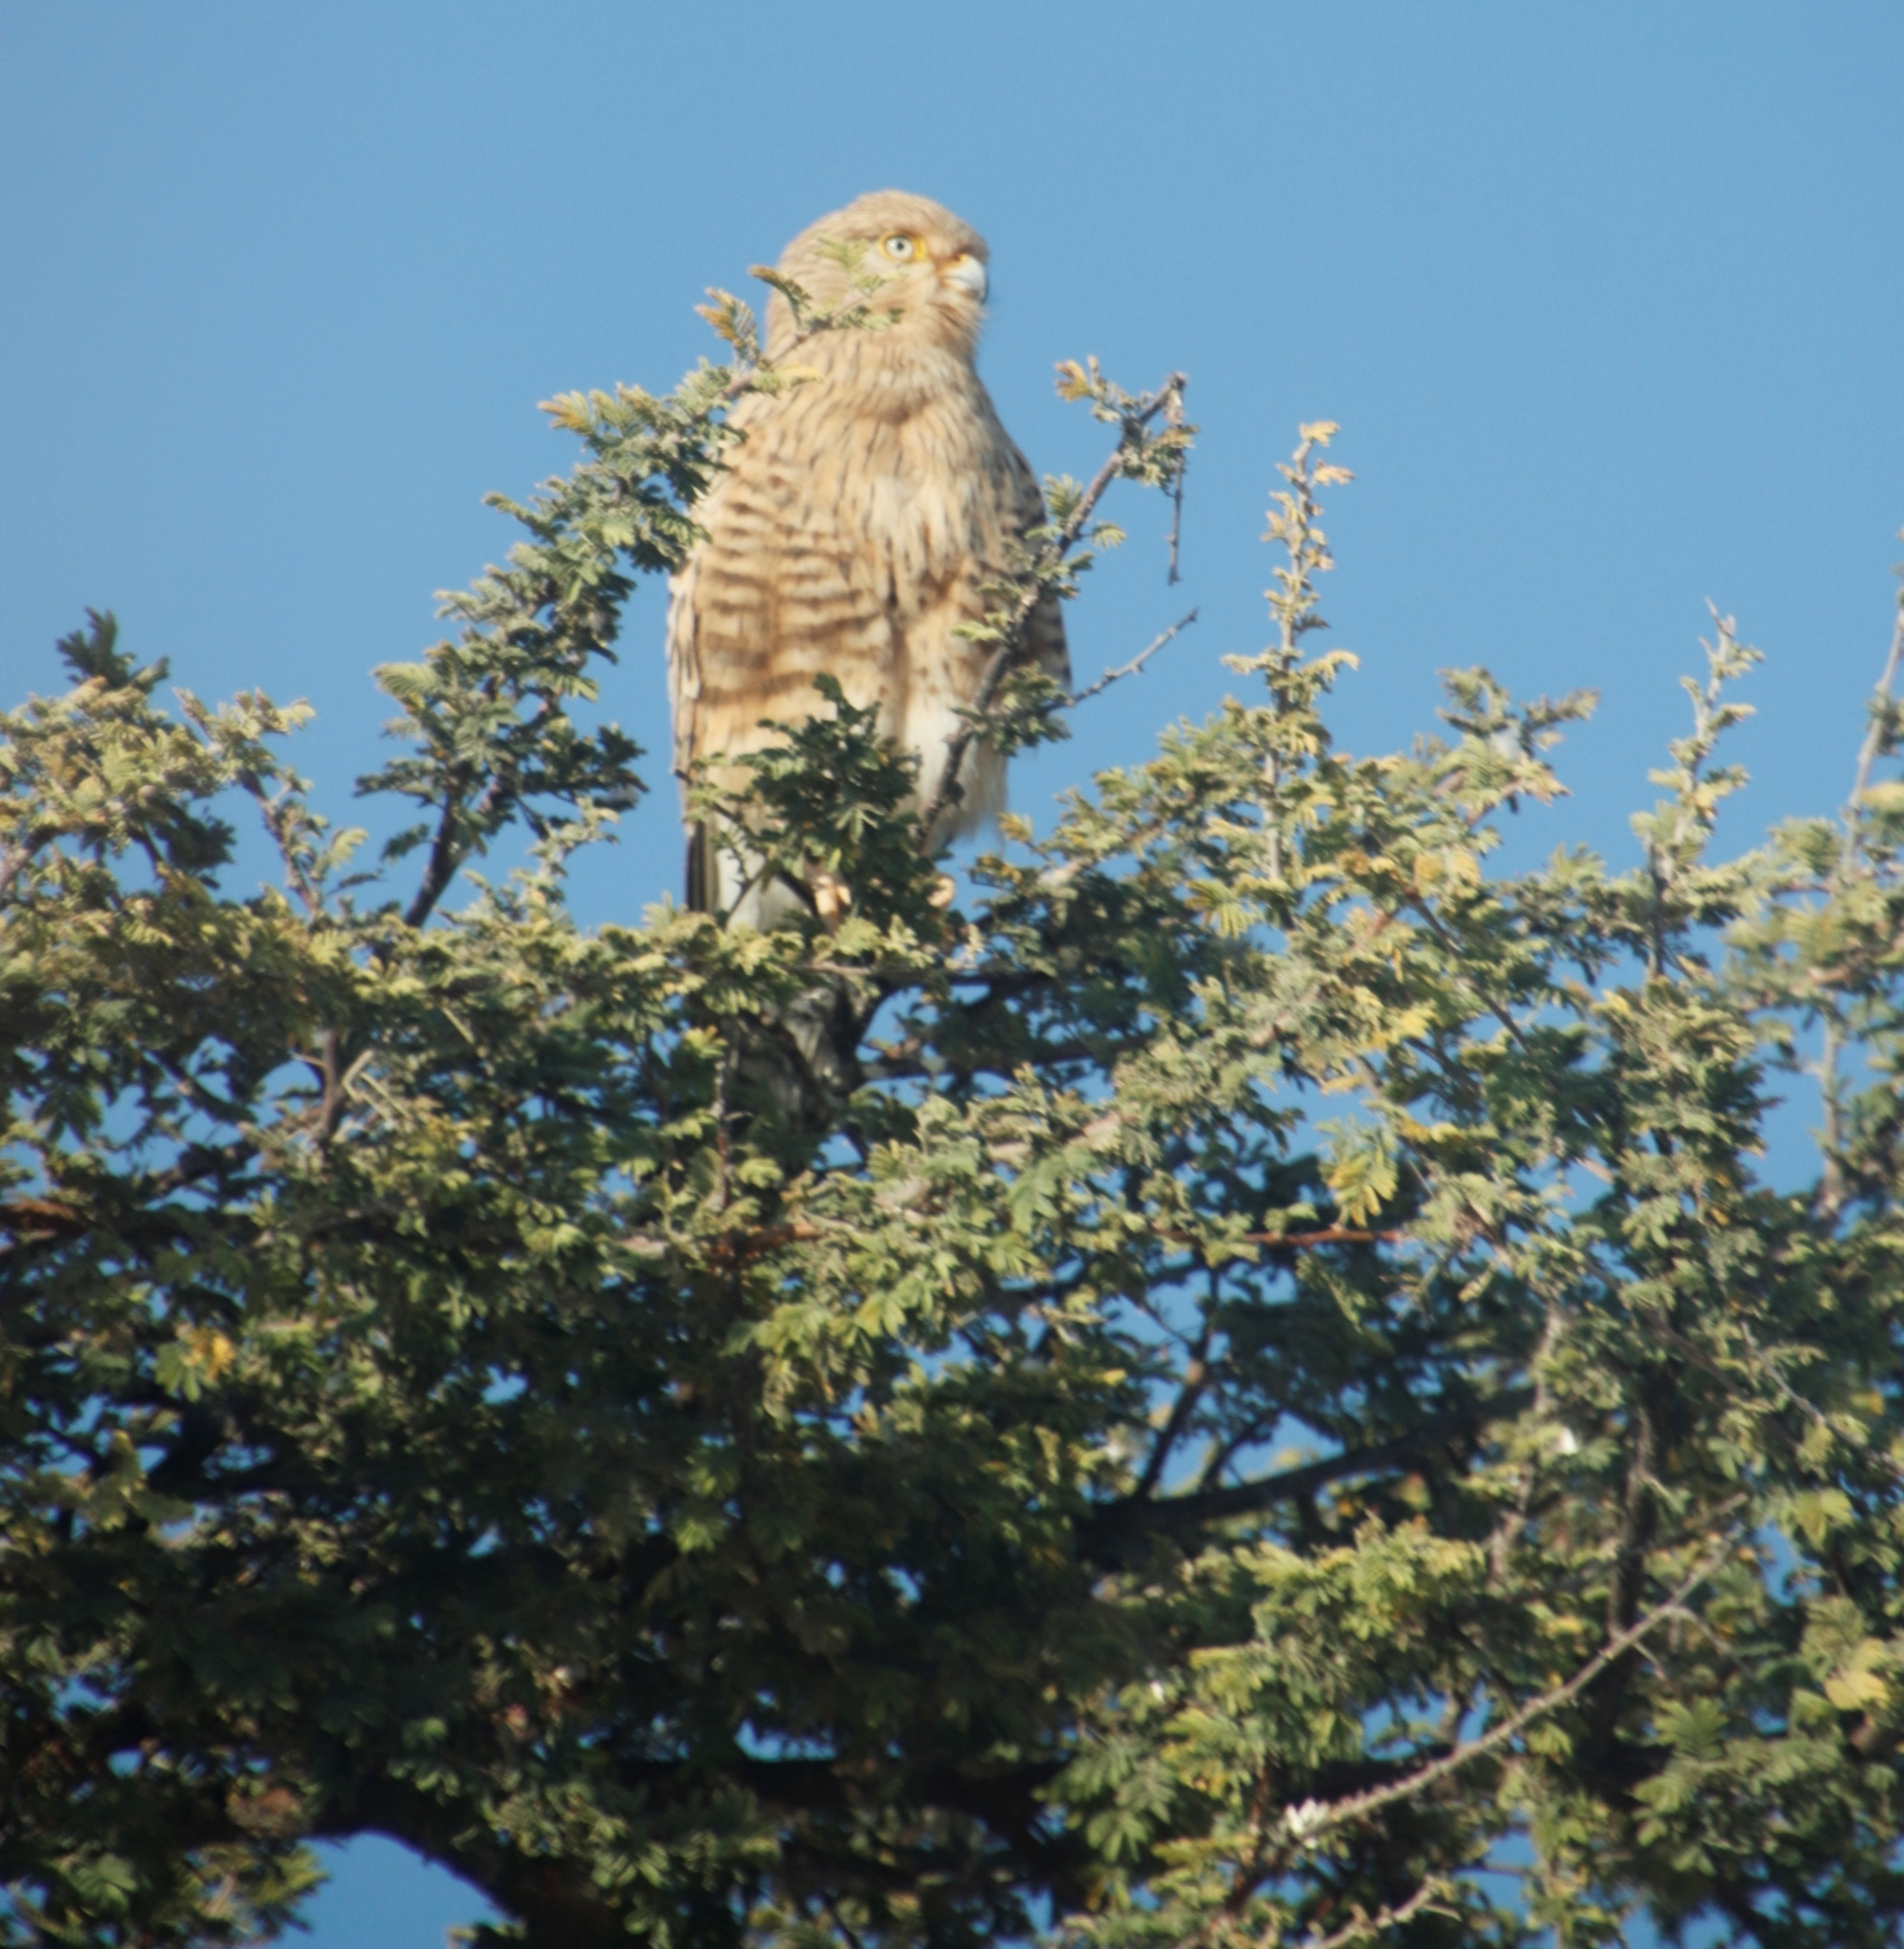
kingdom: Animalia
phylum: Chordata
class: Aves
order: Falconiformes
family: Falconidae
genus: Falco
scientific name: Falco rupicoloides
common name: Greater kestrel
